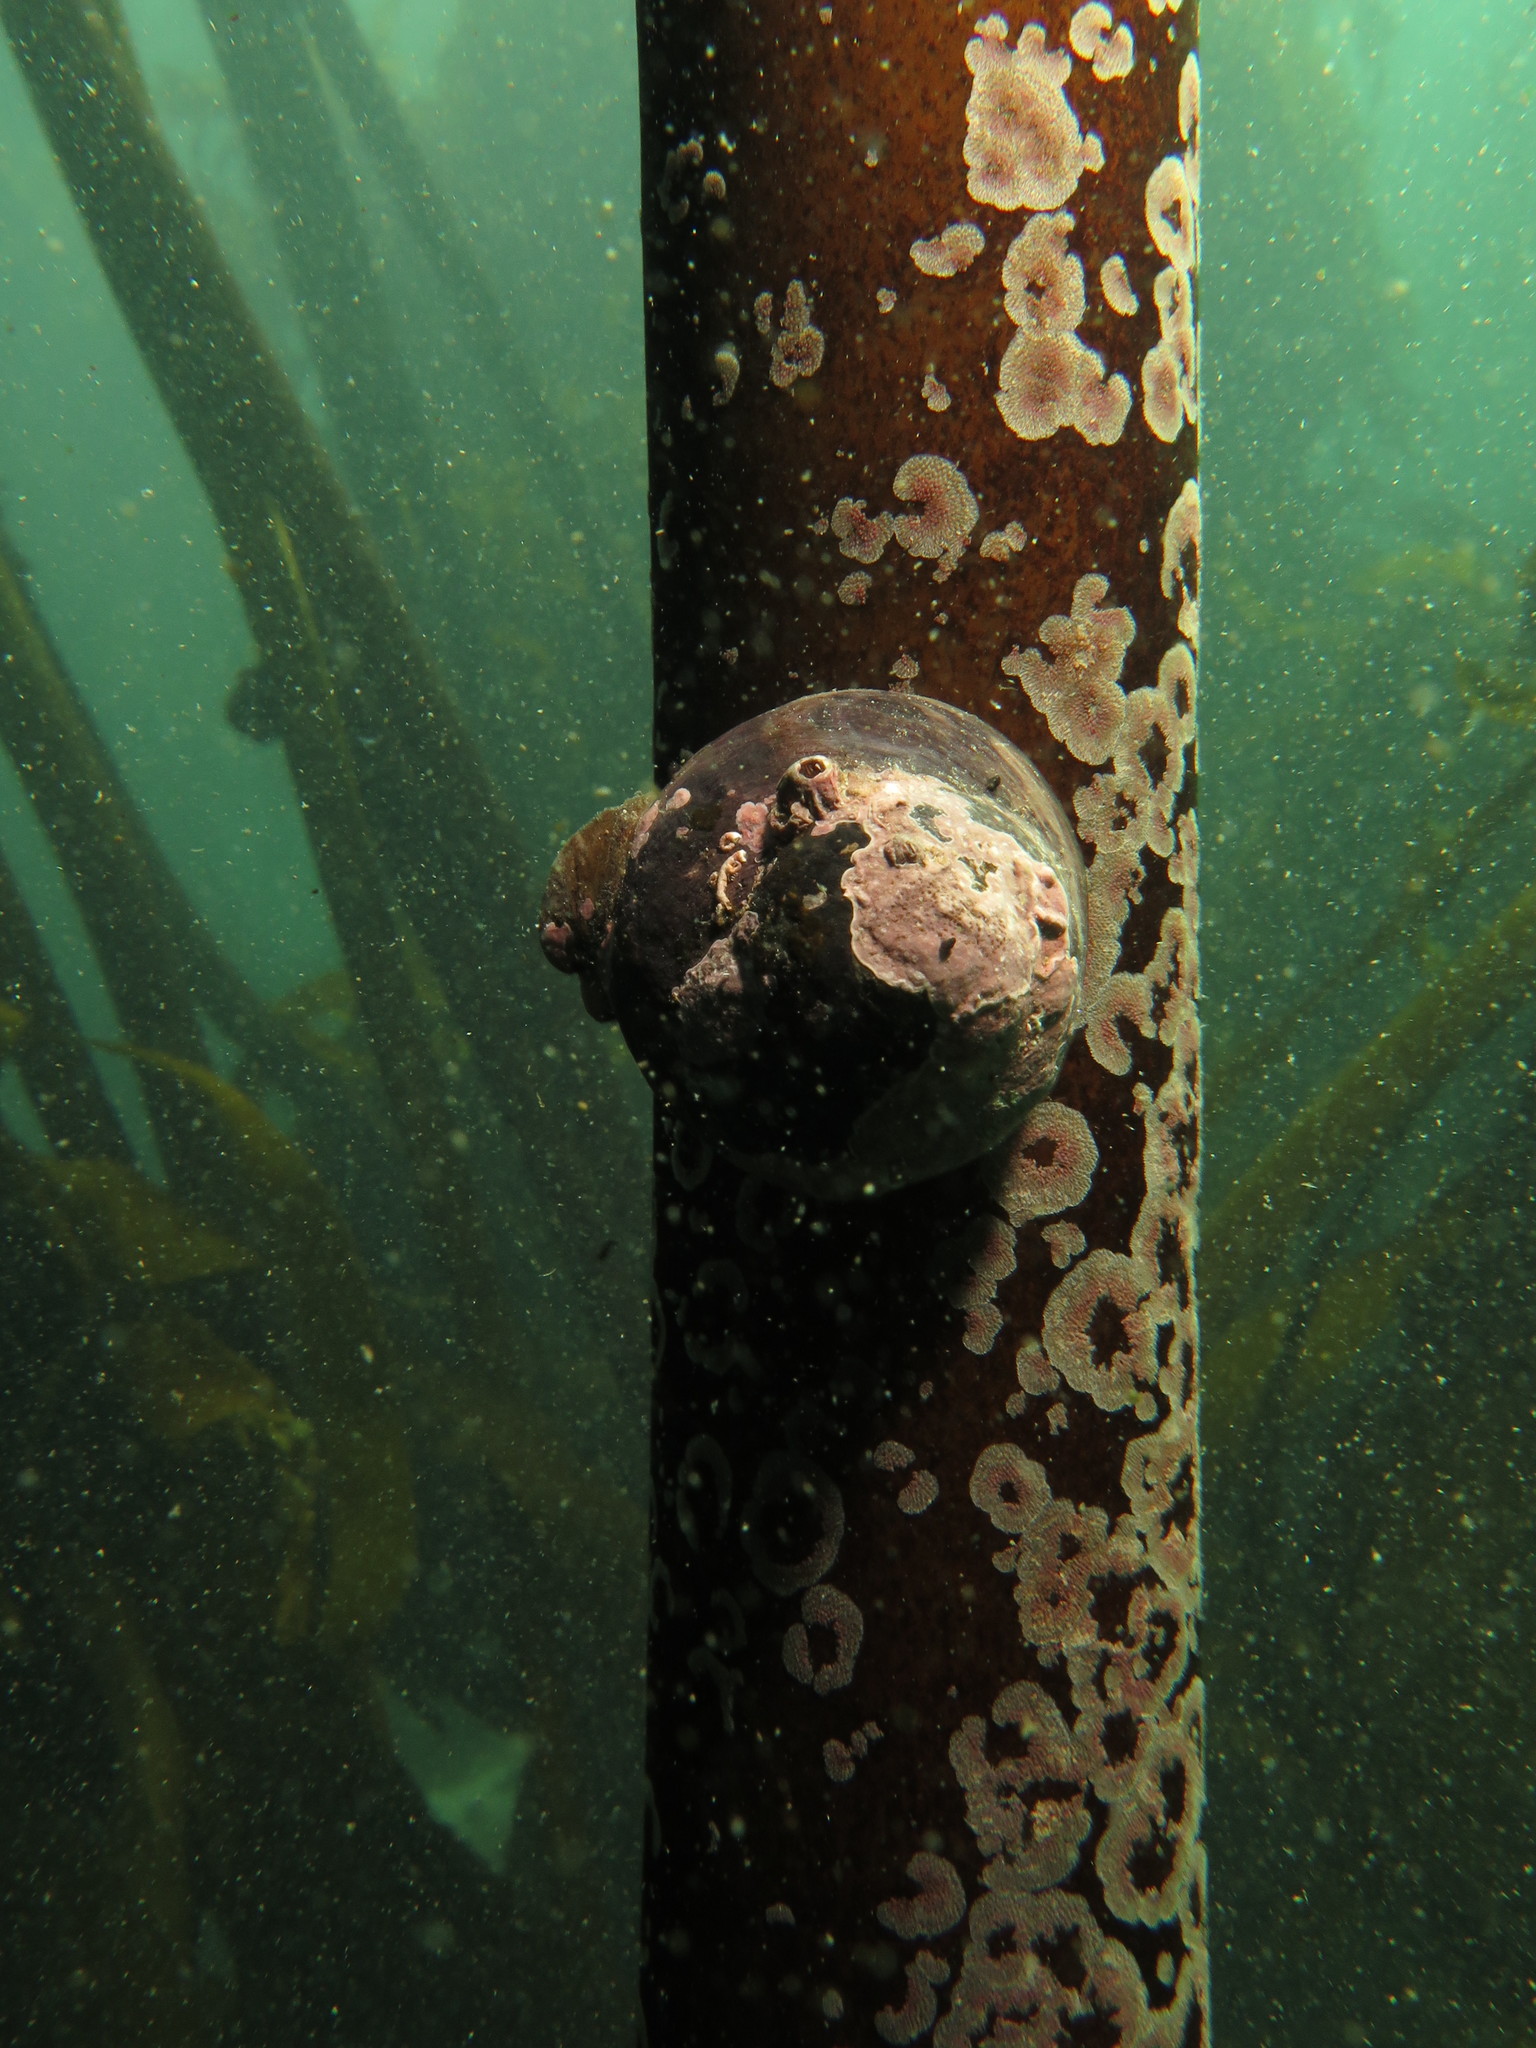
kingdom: Animalia
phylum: Mollusca
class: Gastropoda
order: Trochida
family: Turbinidae
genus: Turbo
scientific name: Turbo sarmaticus
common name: South african turban
